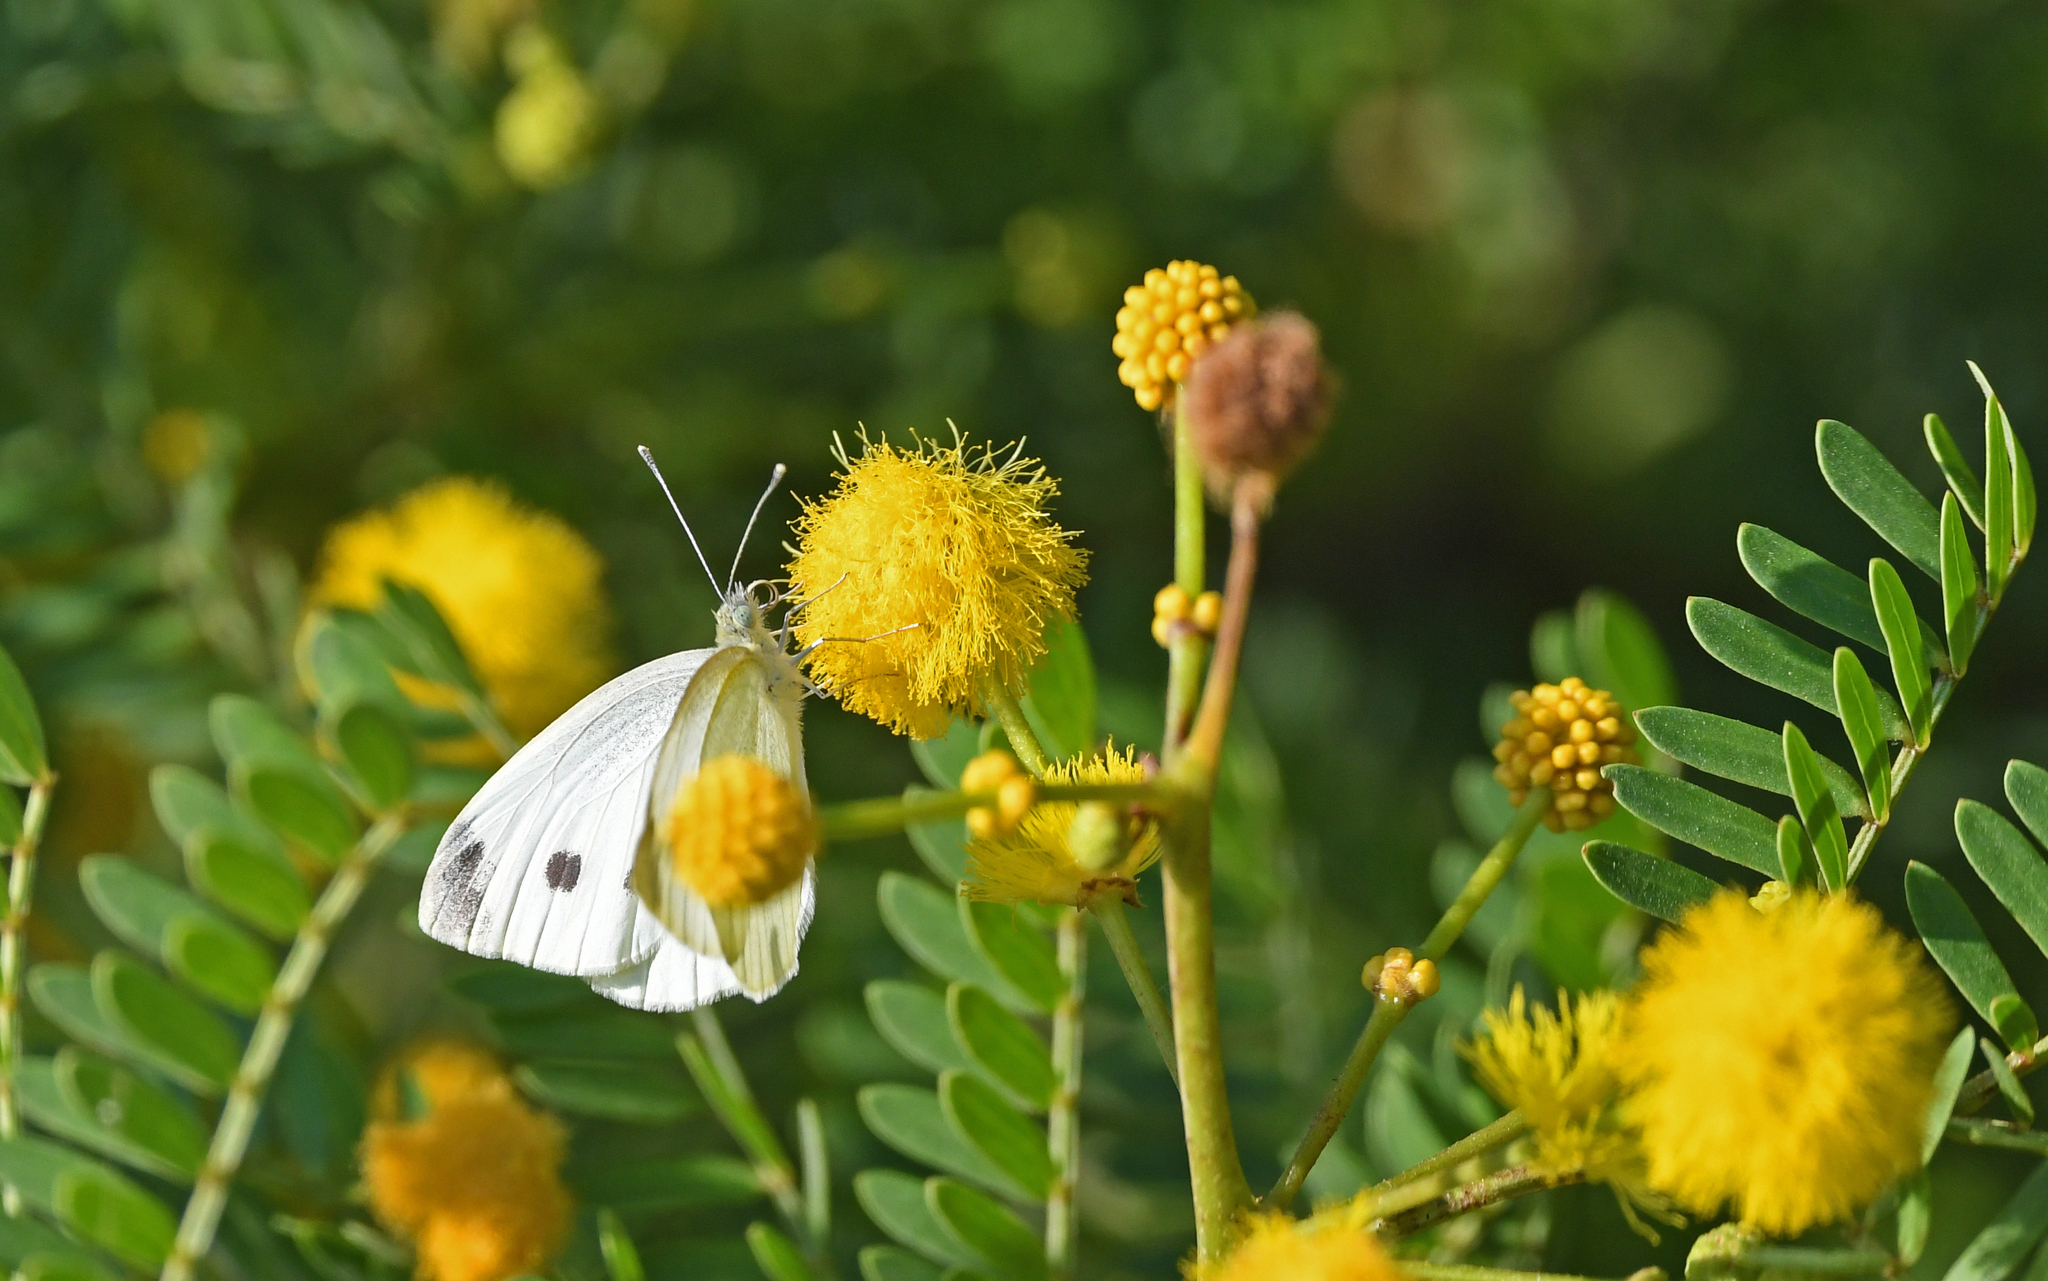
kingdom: Animalia
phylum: Arthropoda
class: Insecta
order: Lepidoptera
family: Pieridae
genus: Pieris
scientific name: Pieris rapae
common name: Small white
